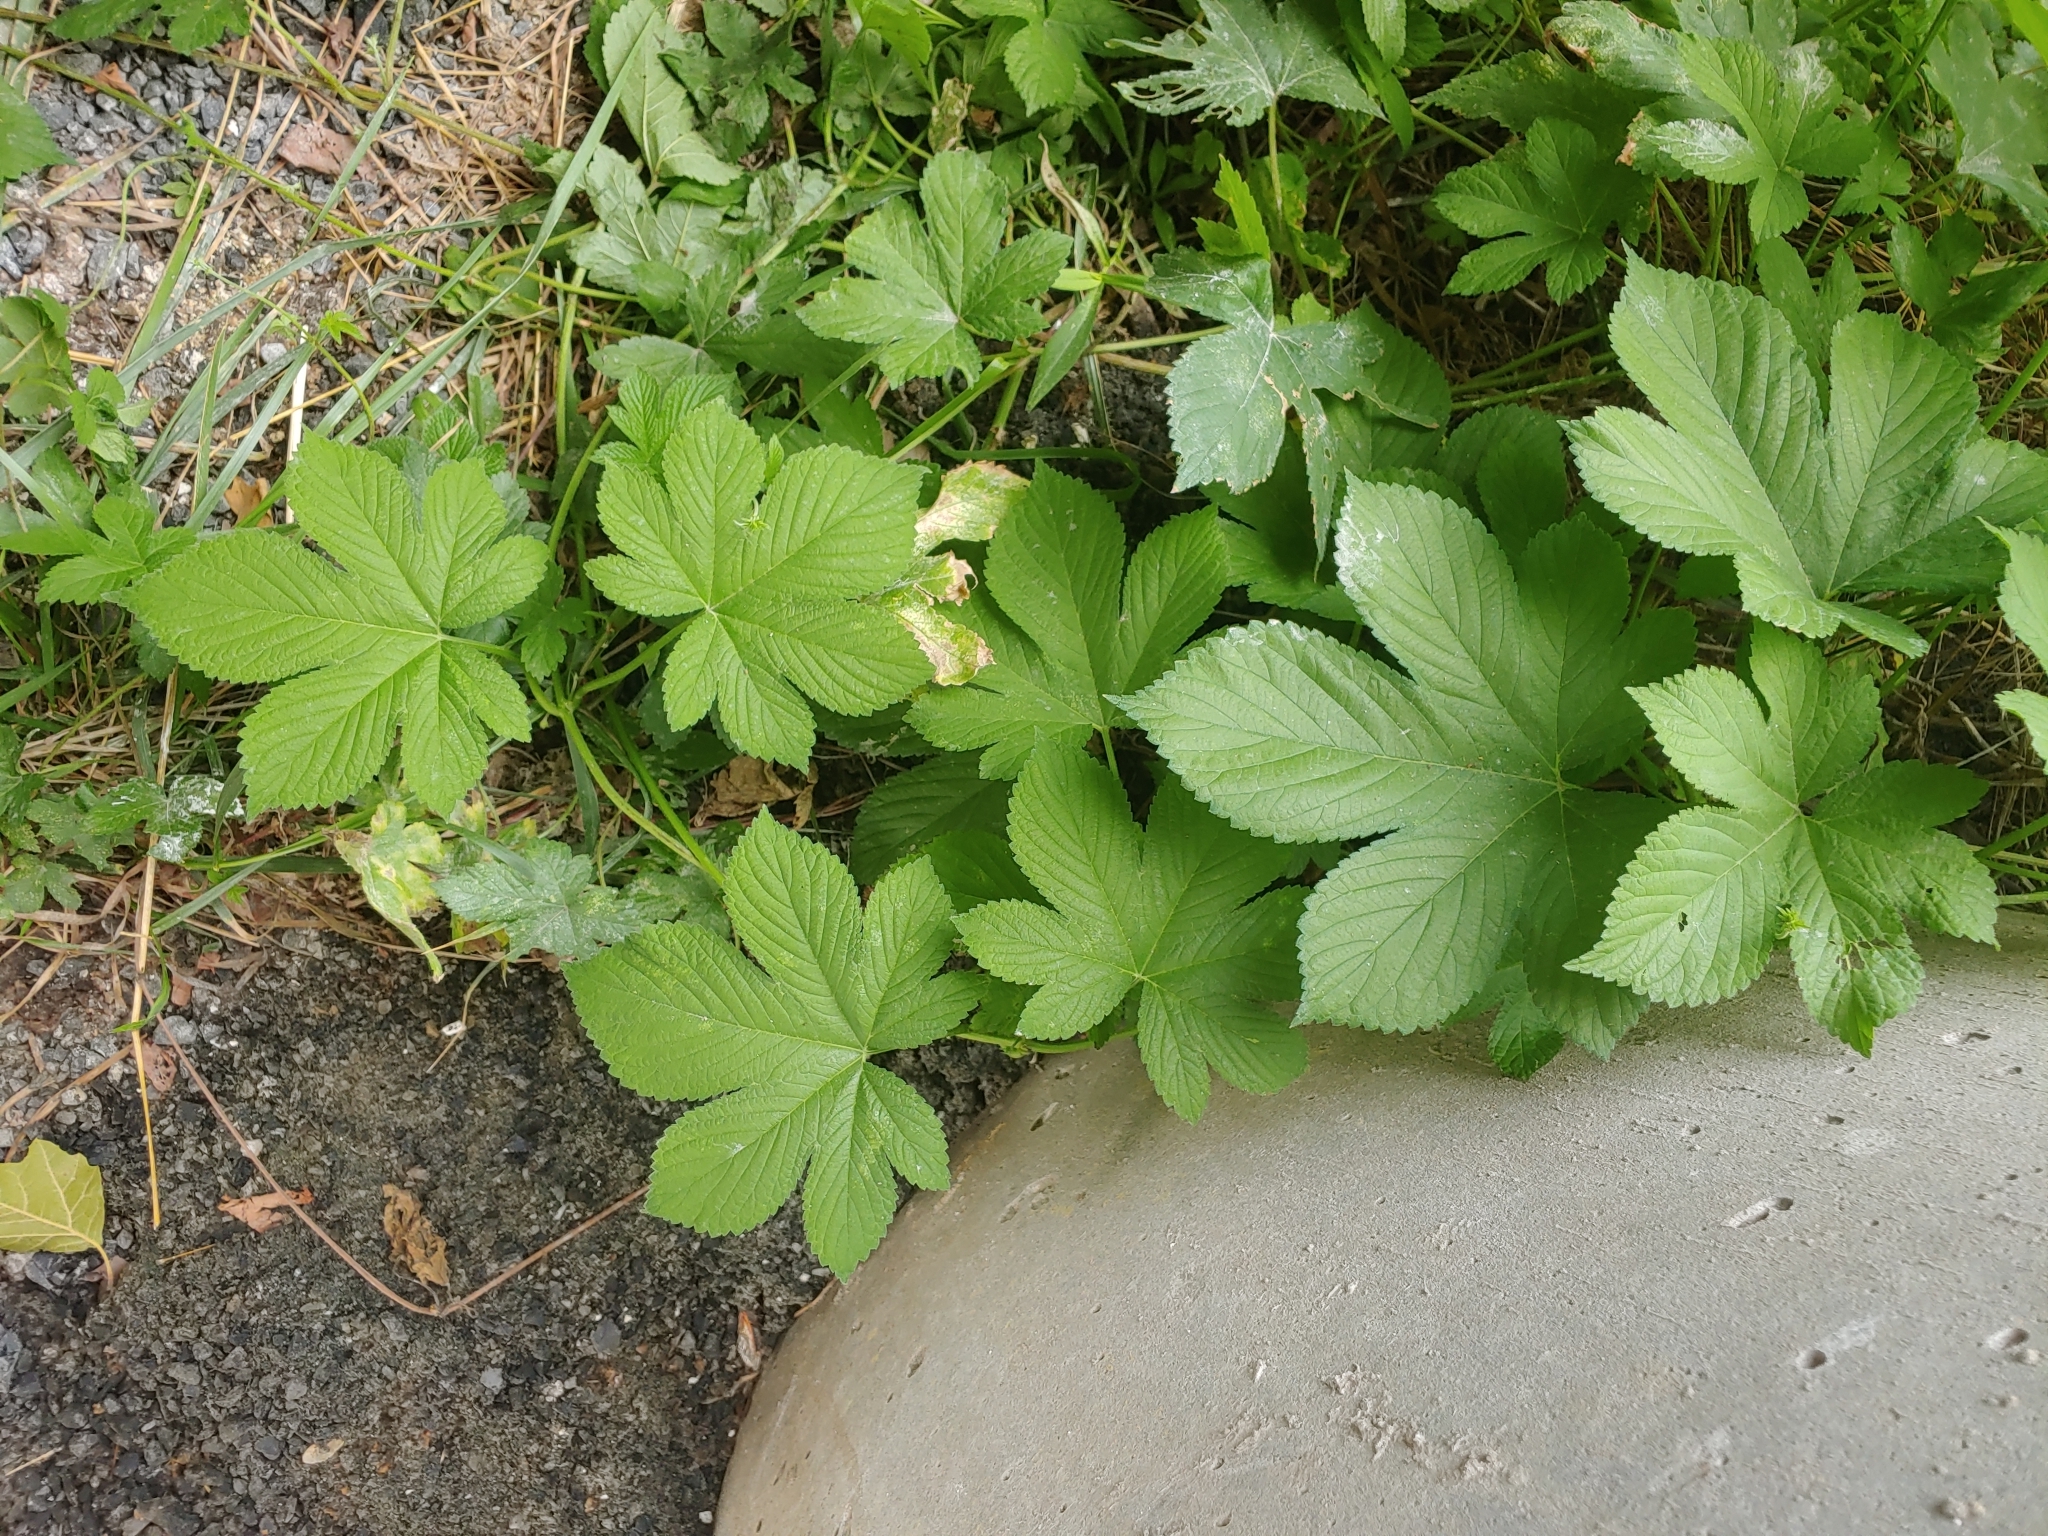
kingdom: Plantae
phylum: Tracheophyta
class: Magnoliopsida
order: Rosales
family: Cannabaceae
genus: Humulus
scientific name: Humulus scandens
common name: Japanese hop
